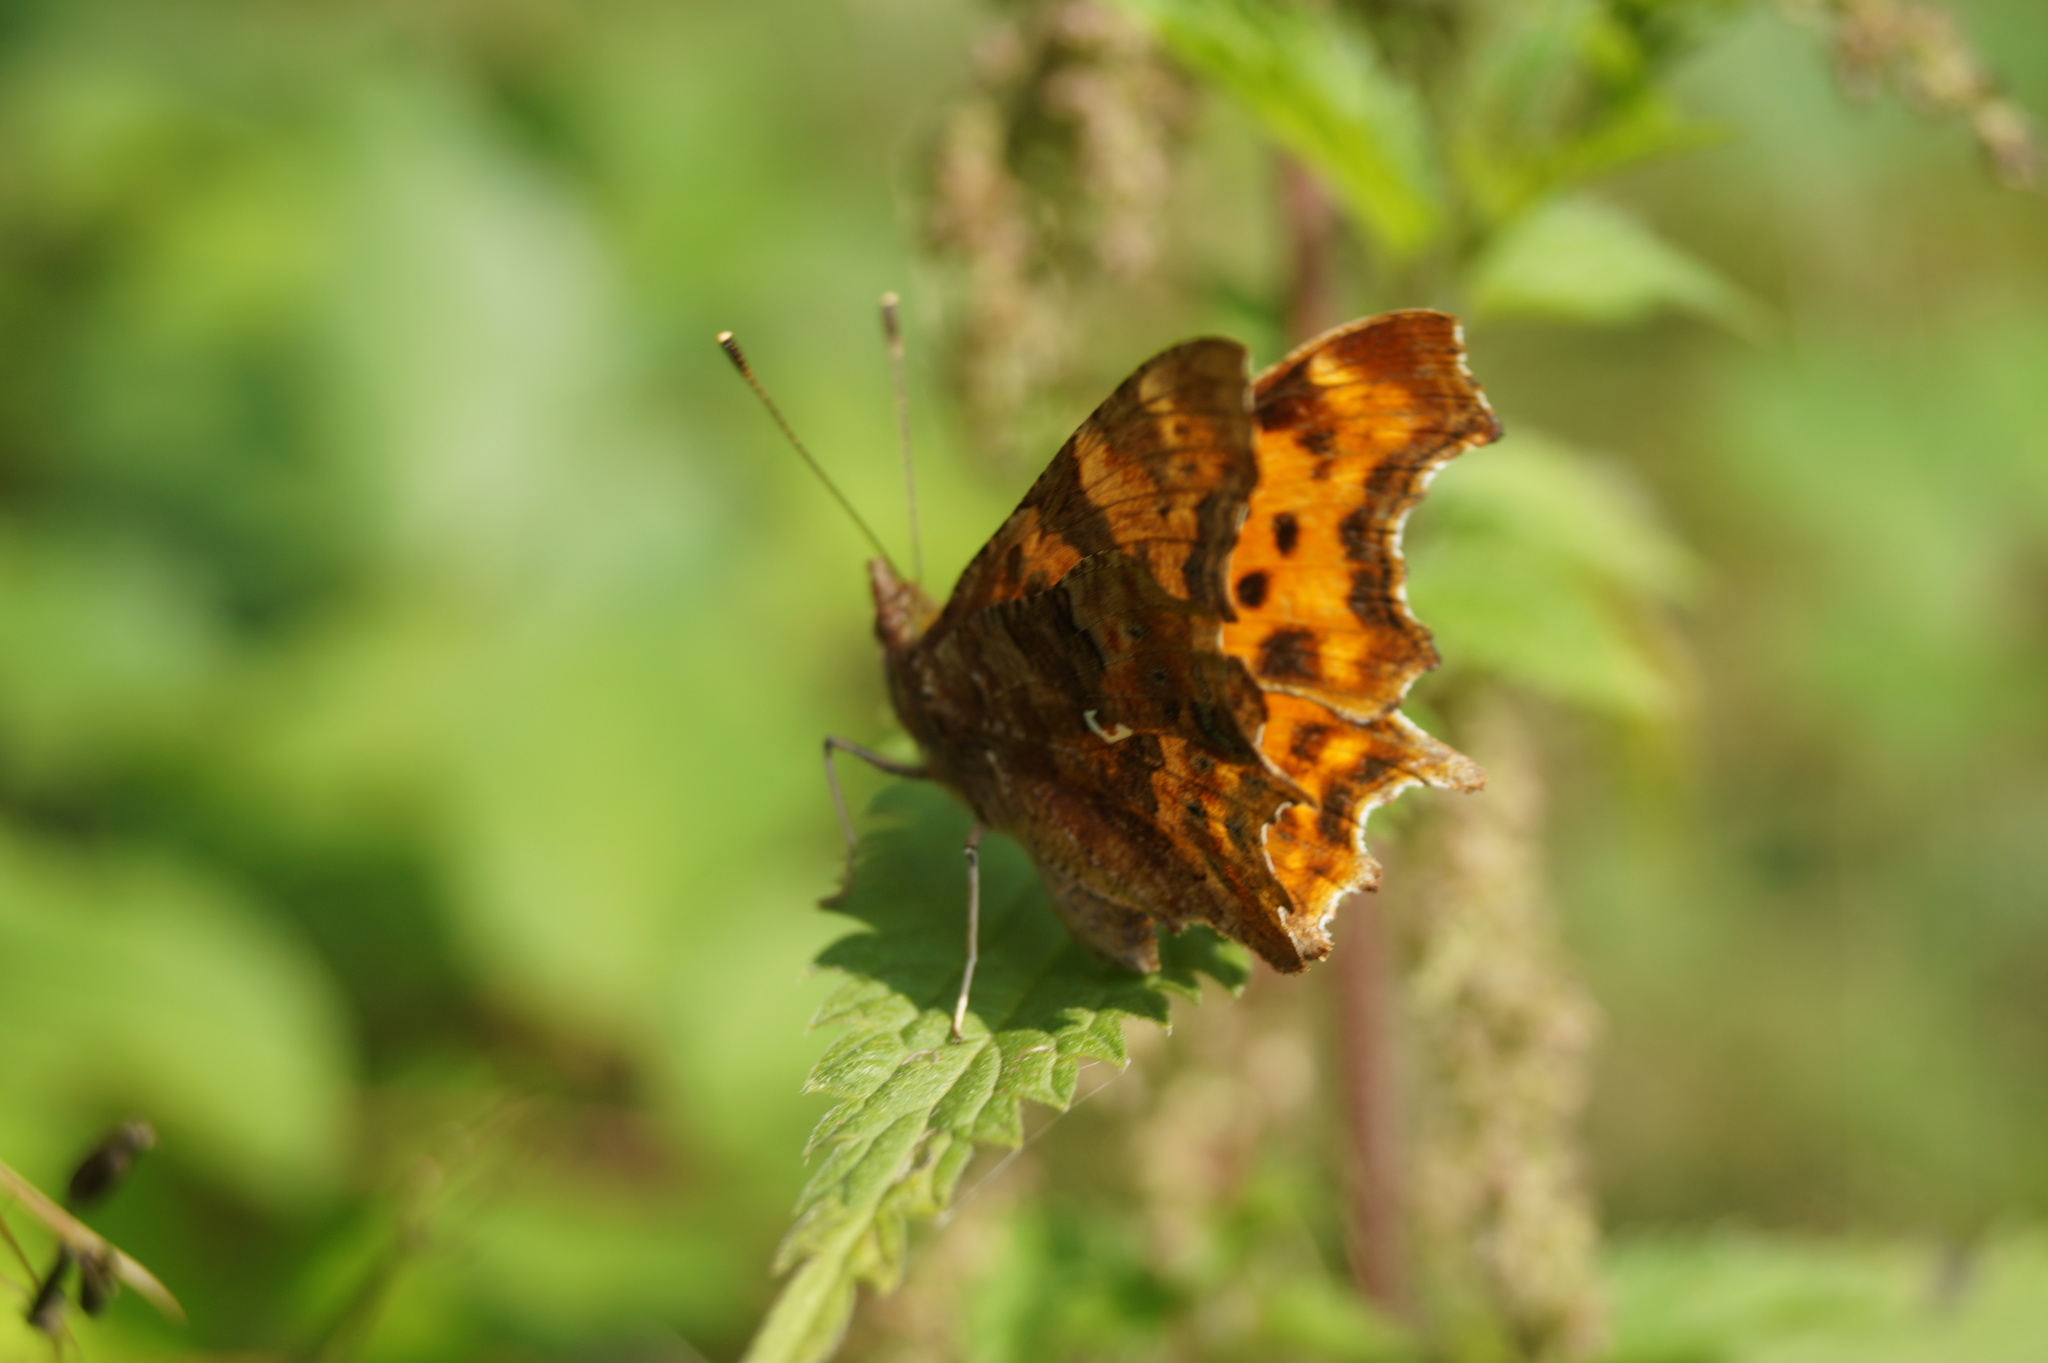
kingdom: Animalia
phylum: Arthropoda
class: Insecta
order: Lepidoptera
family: Nymphalidae
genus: Polygonia
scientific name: Polygonia c-album
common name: Comma
